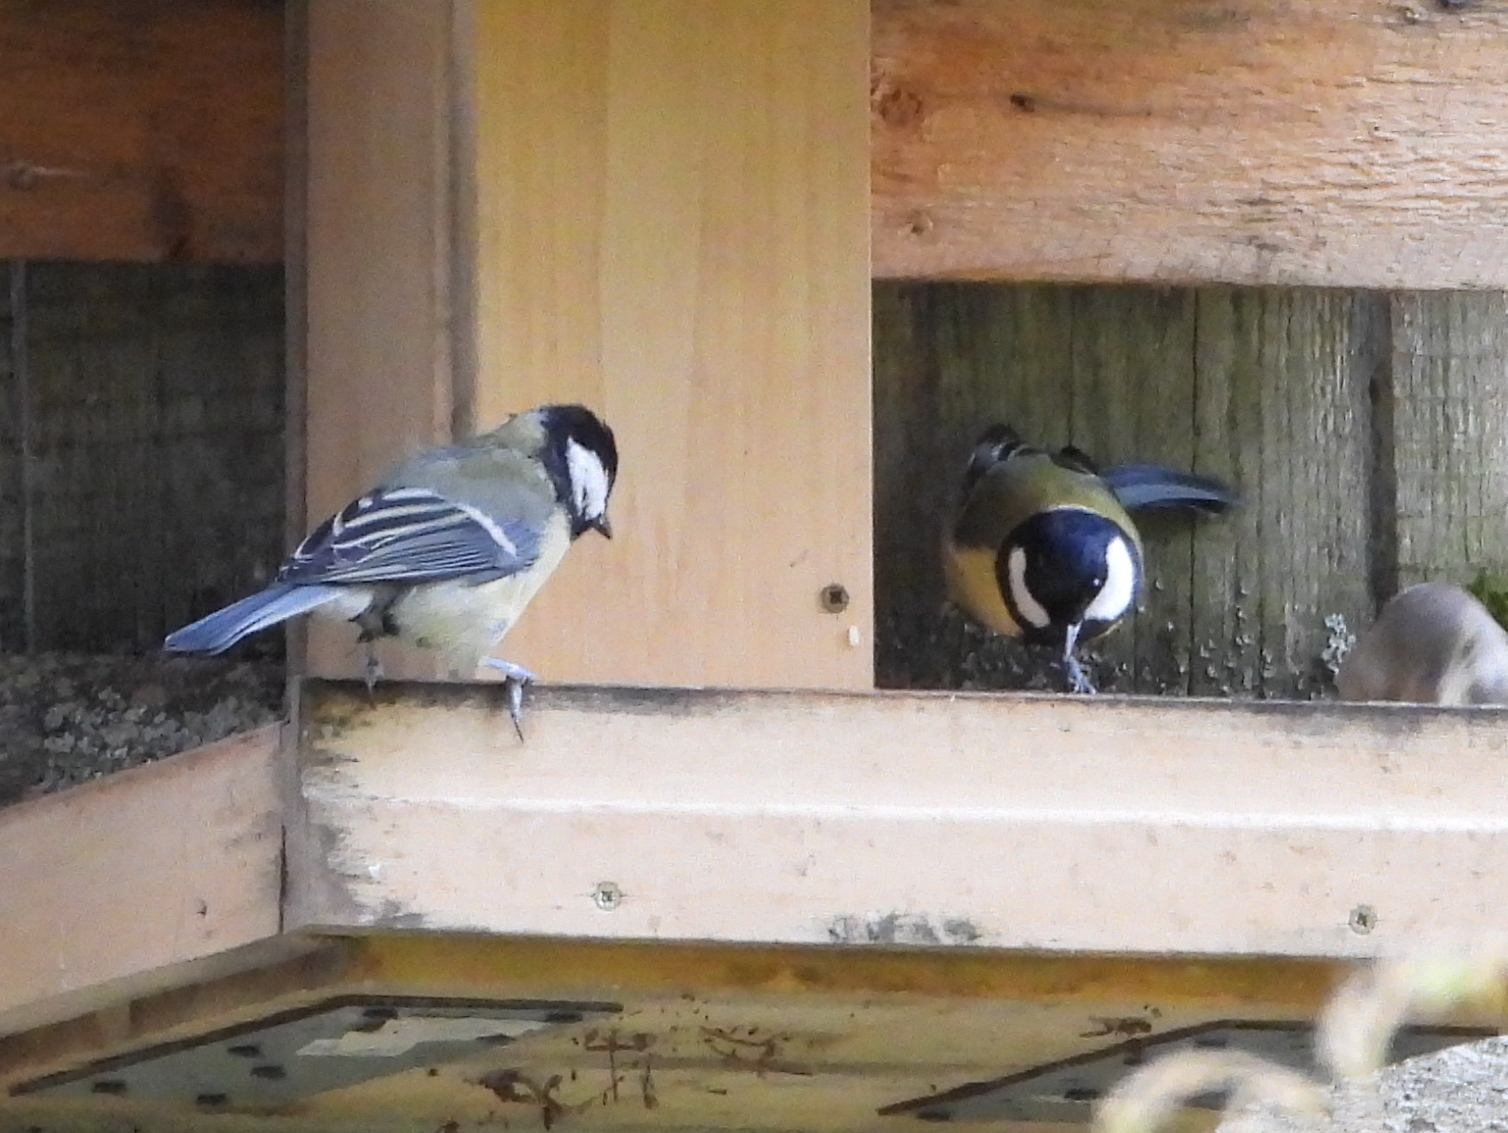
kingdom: Animalia
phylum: Chordata
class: Aves
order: Passeriformes
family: Paridae
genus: Parus
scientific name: Parus major
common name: Great tit
